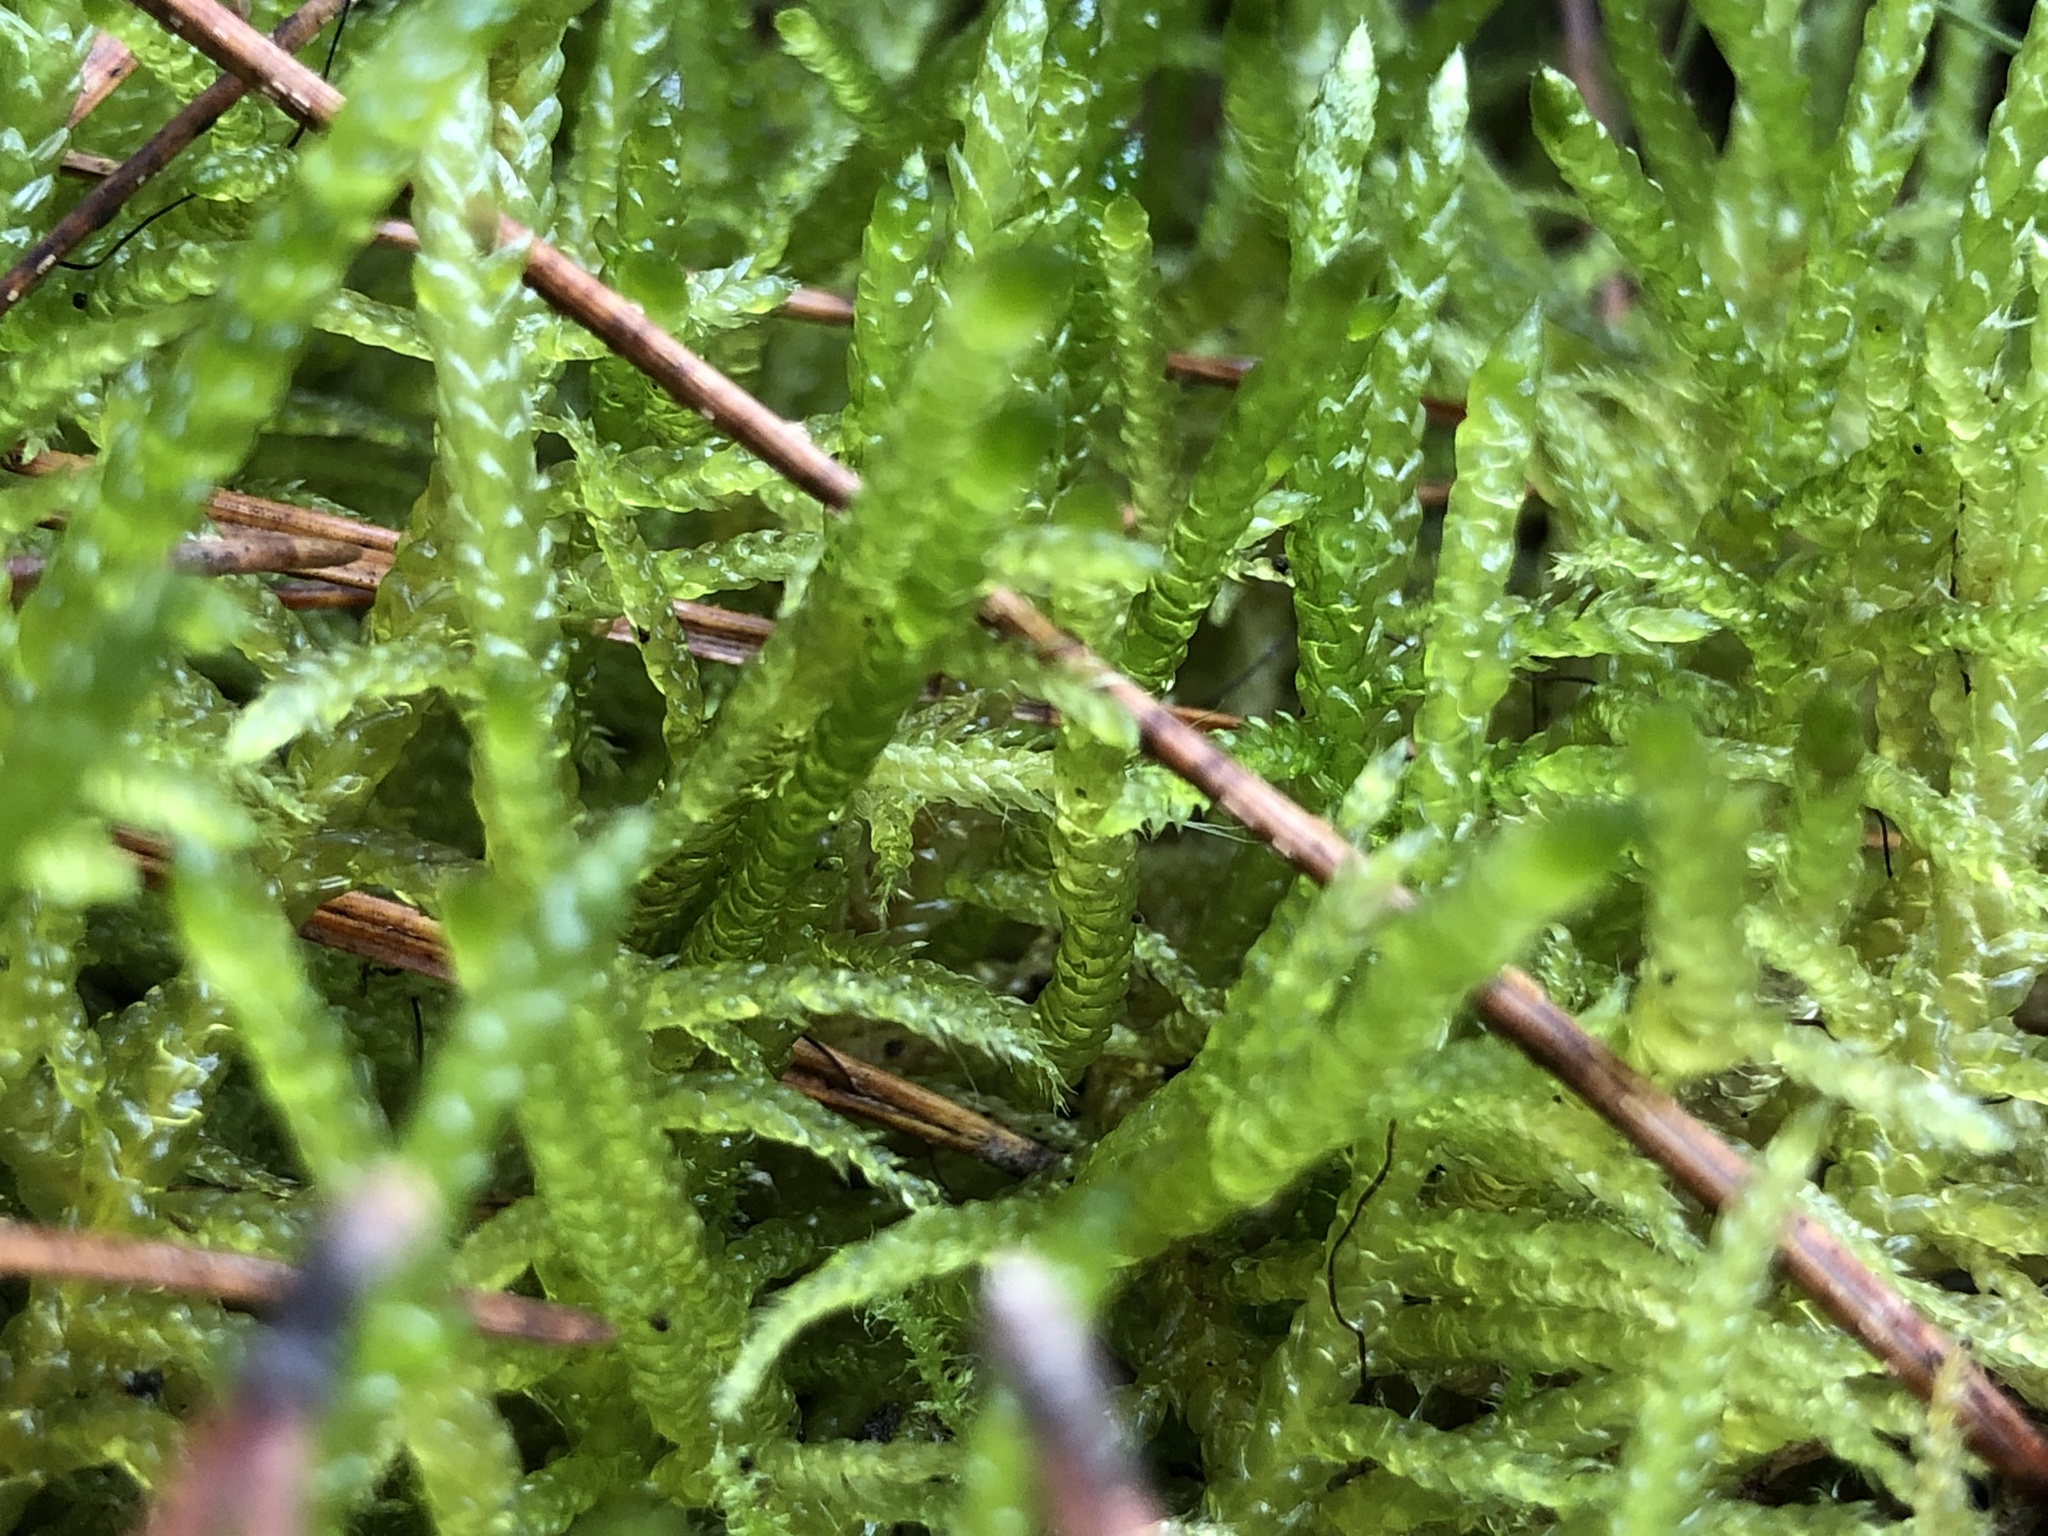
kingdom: Plantae
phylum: Bryophyta
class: Bryopsida
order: Hypnales
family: Brachytheciaceae
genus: Pseudoscleropodium
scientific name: Pseudoscleropodium purum
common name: Neat feather-moss
